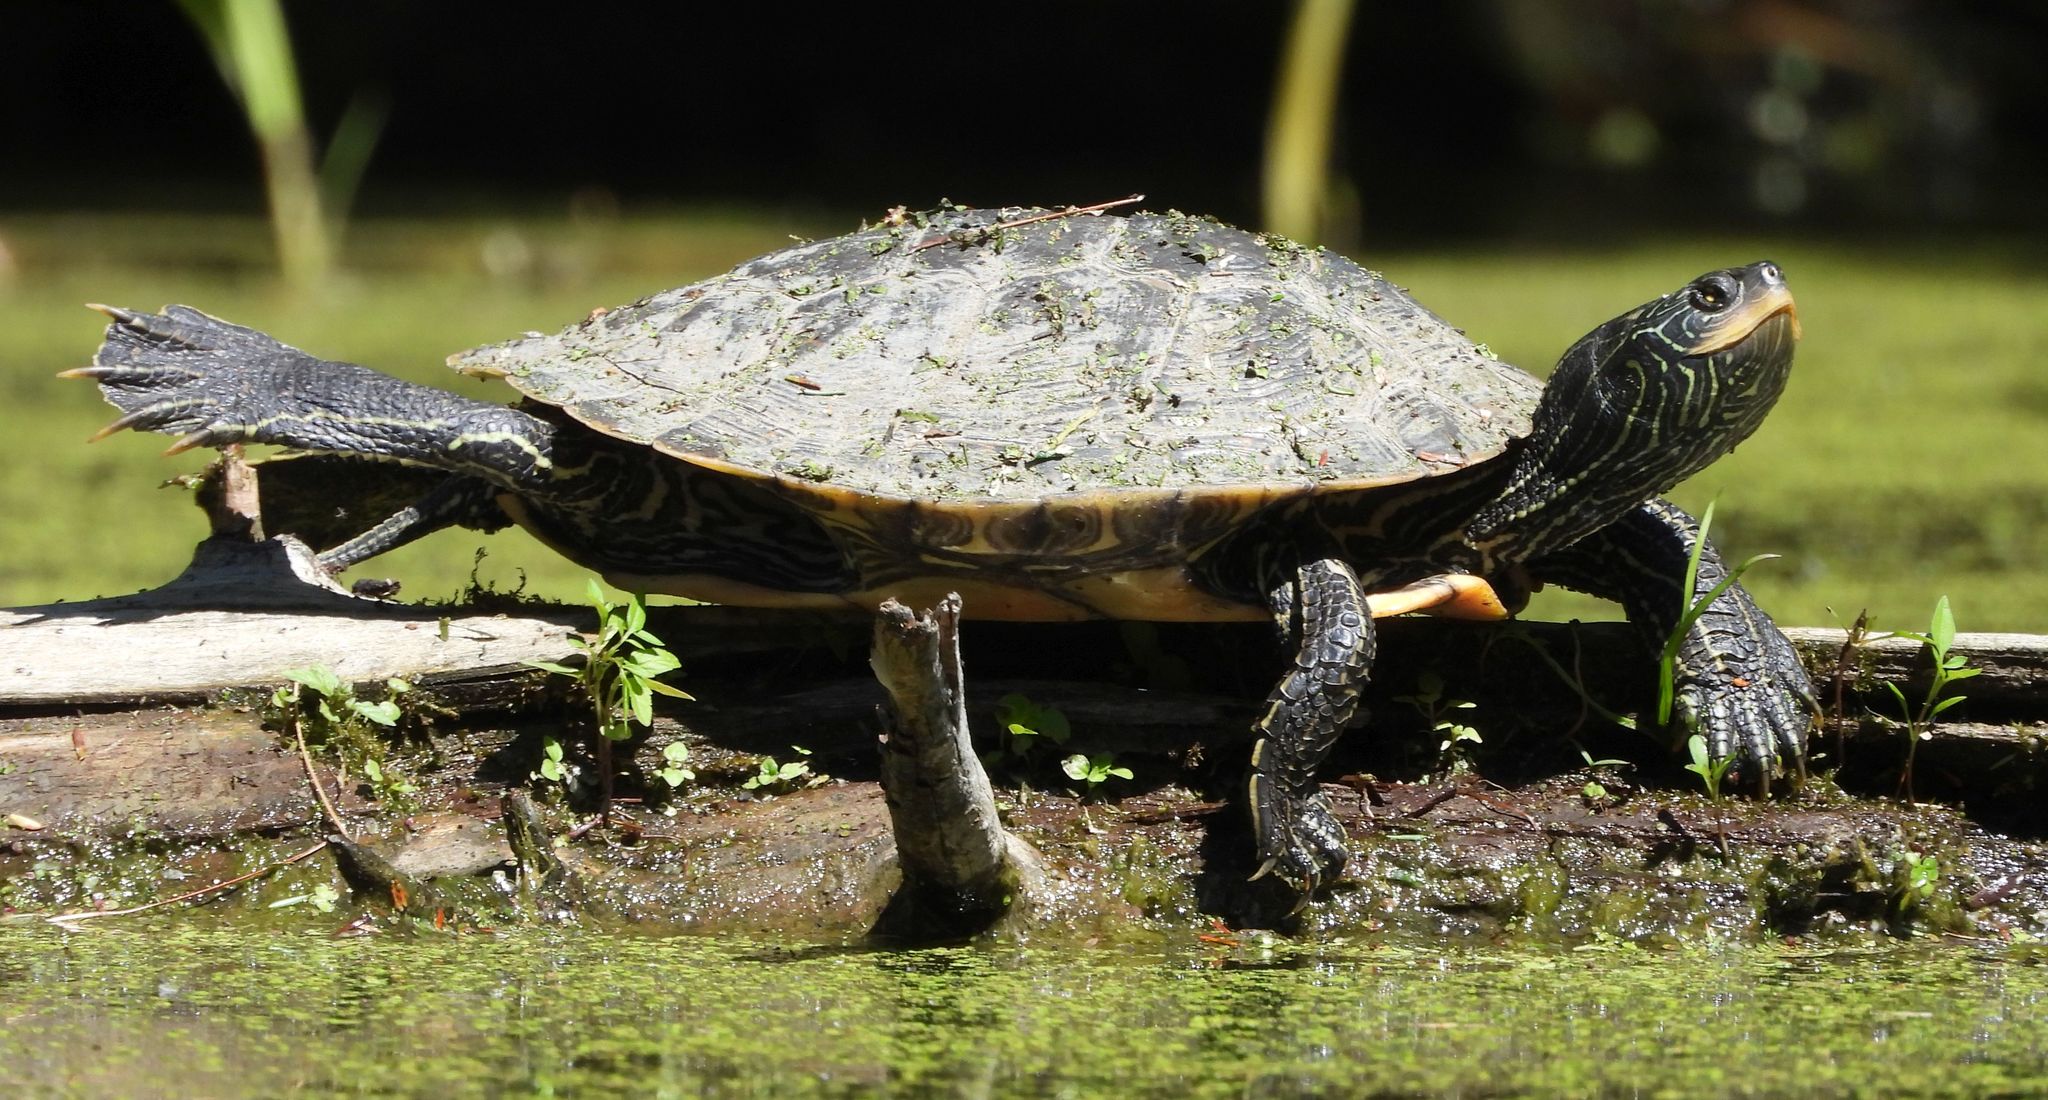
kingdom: Animalia
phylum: Chordata
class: Testudines
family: Emydidae
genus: Graptemys
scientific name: Graptemys geographica
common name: Common map turtle
